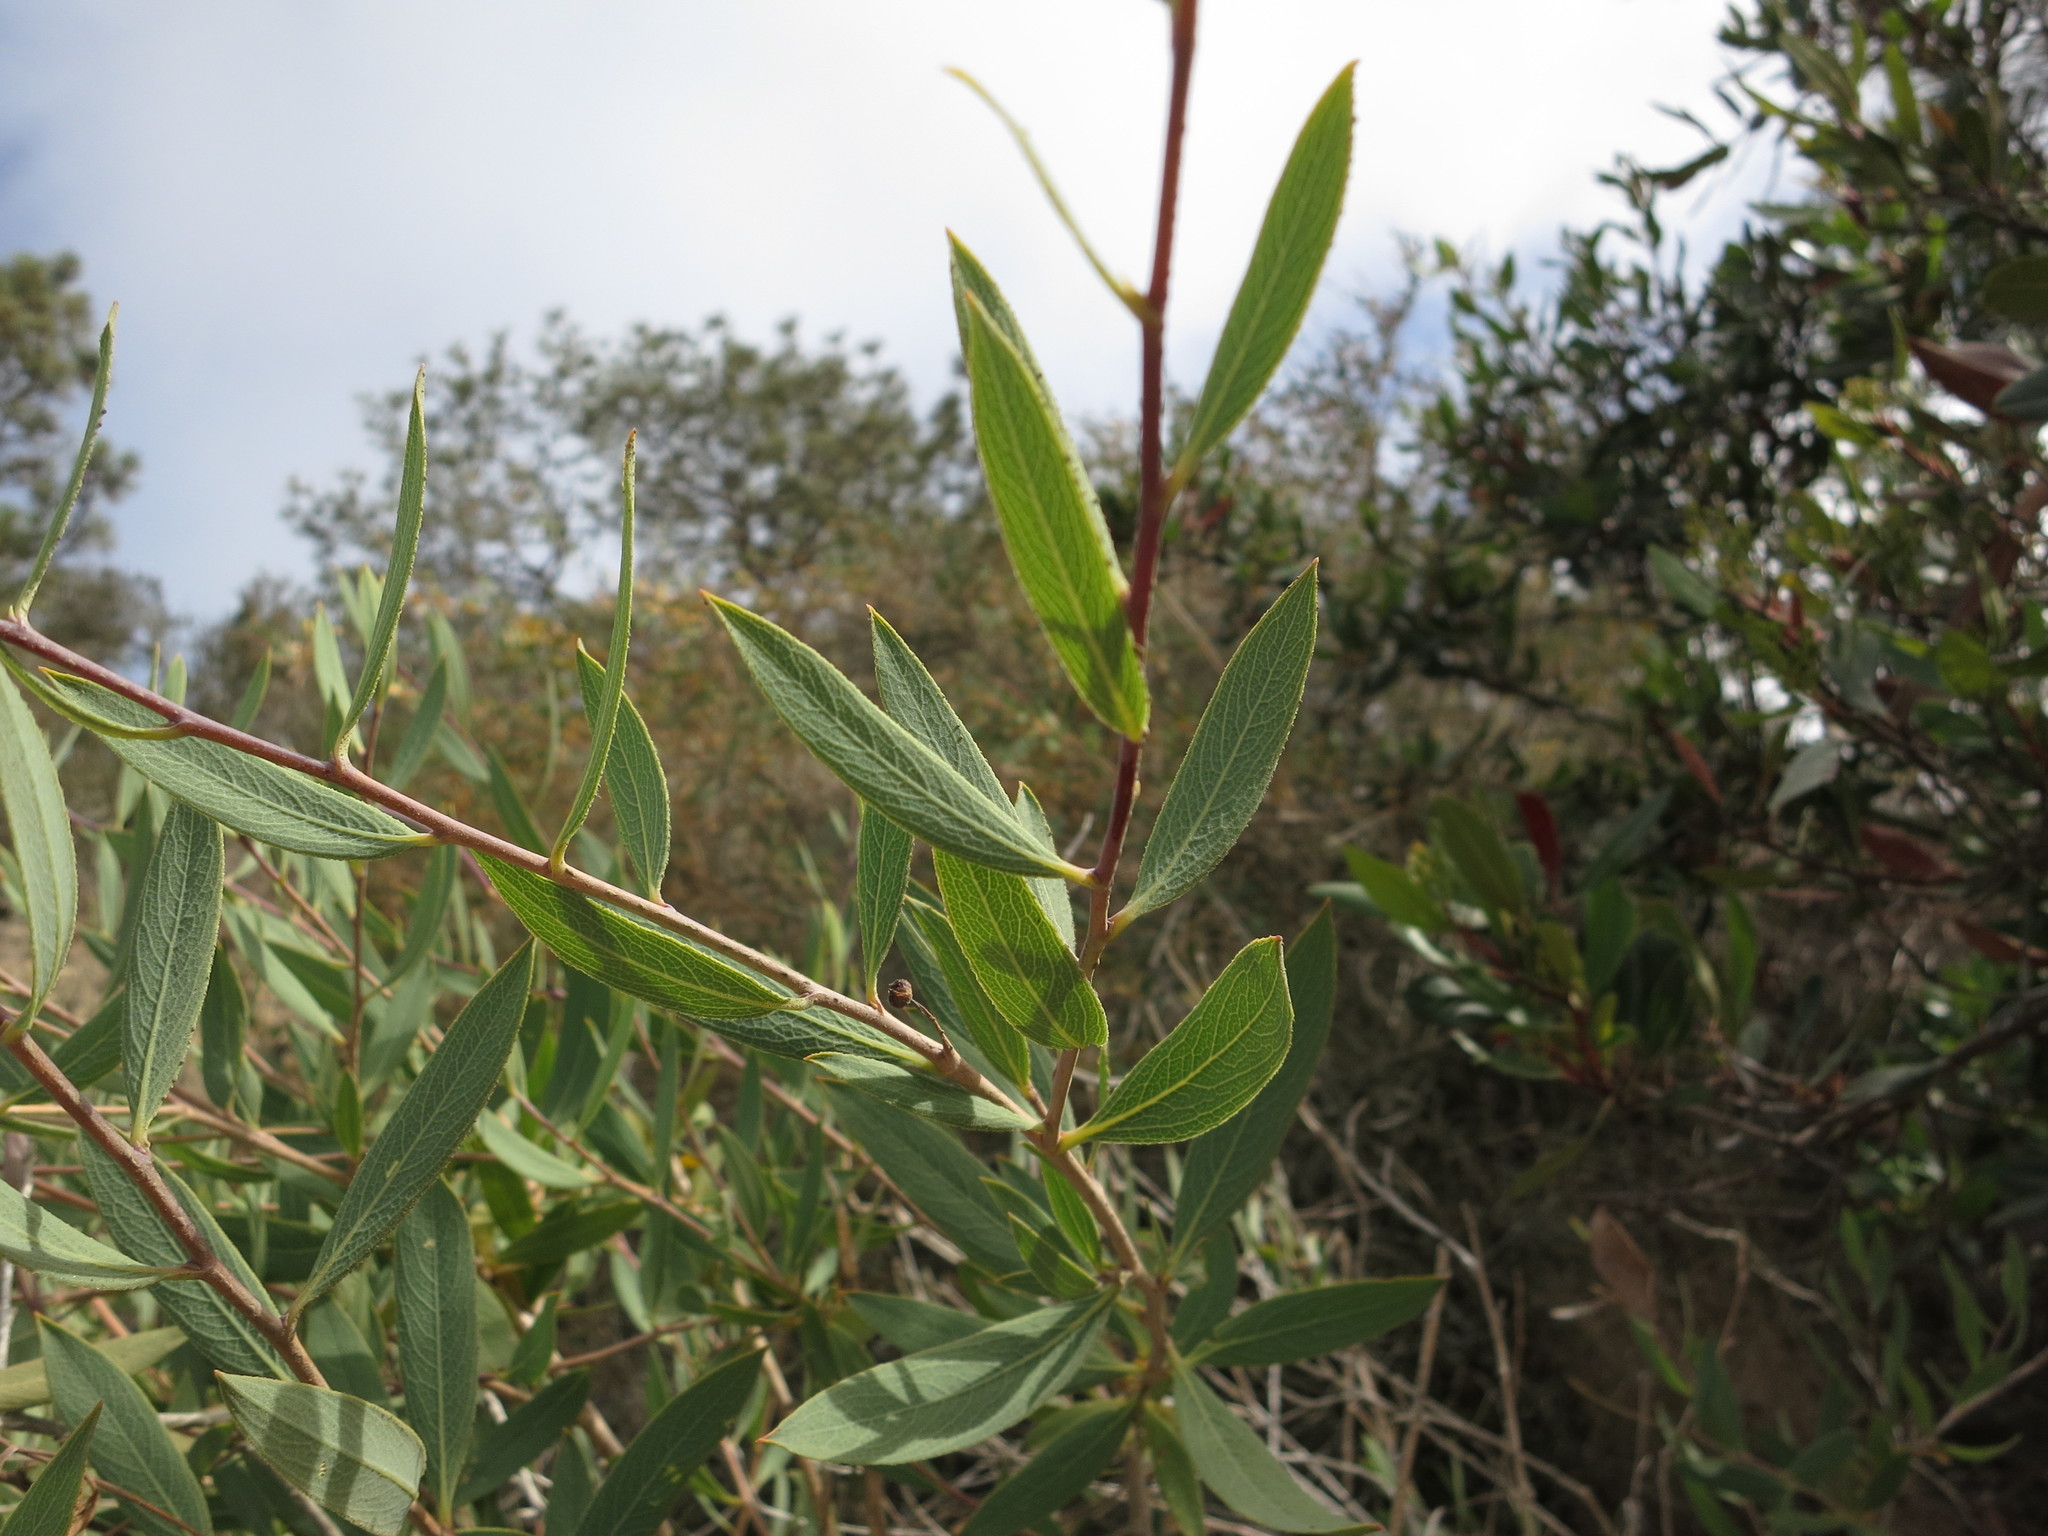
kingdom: Plantae
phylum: Tracheophyta
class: Magnoliopsida
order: Ranunculales
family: Papaveraceae
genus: Dendromecon
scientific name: Dendromecon rigida
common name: Tree poppy
